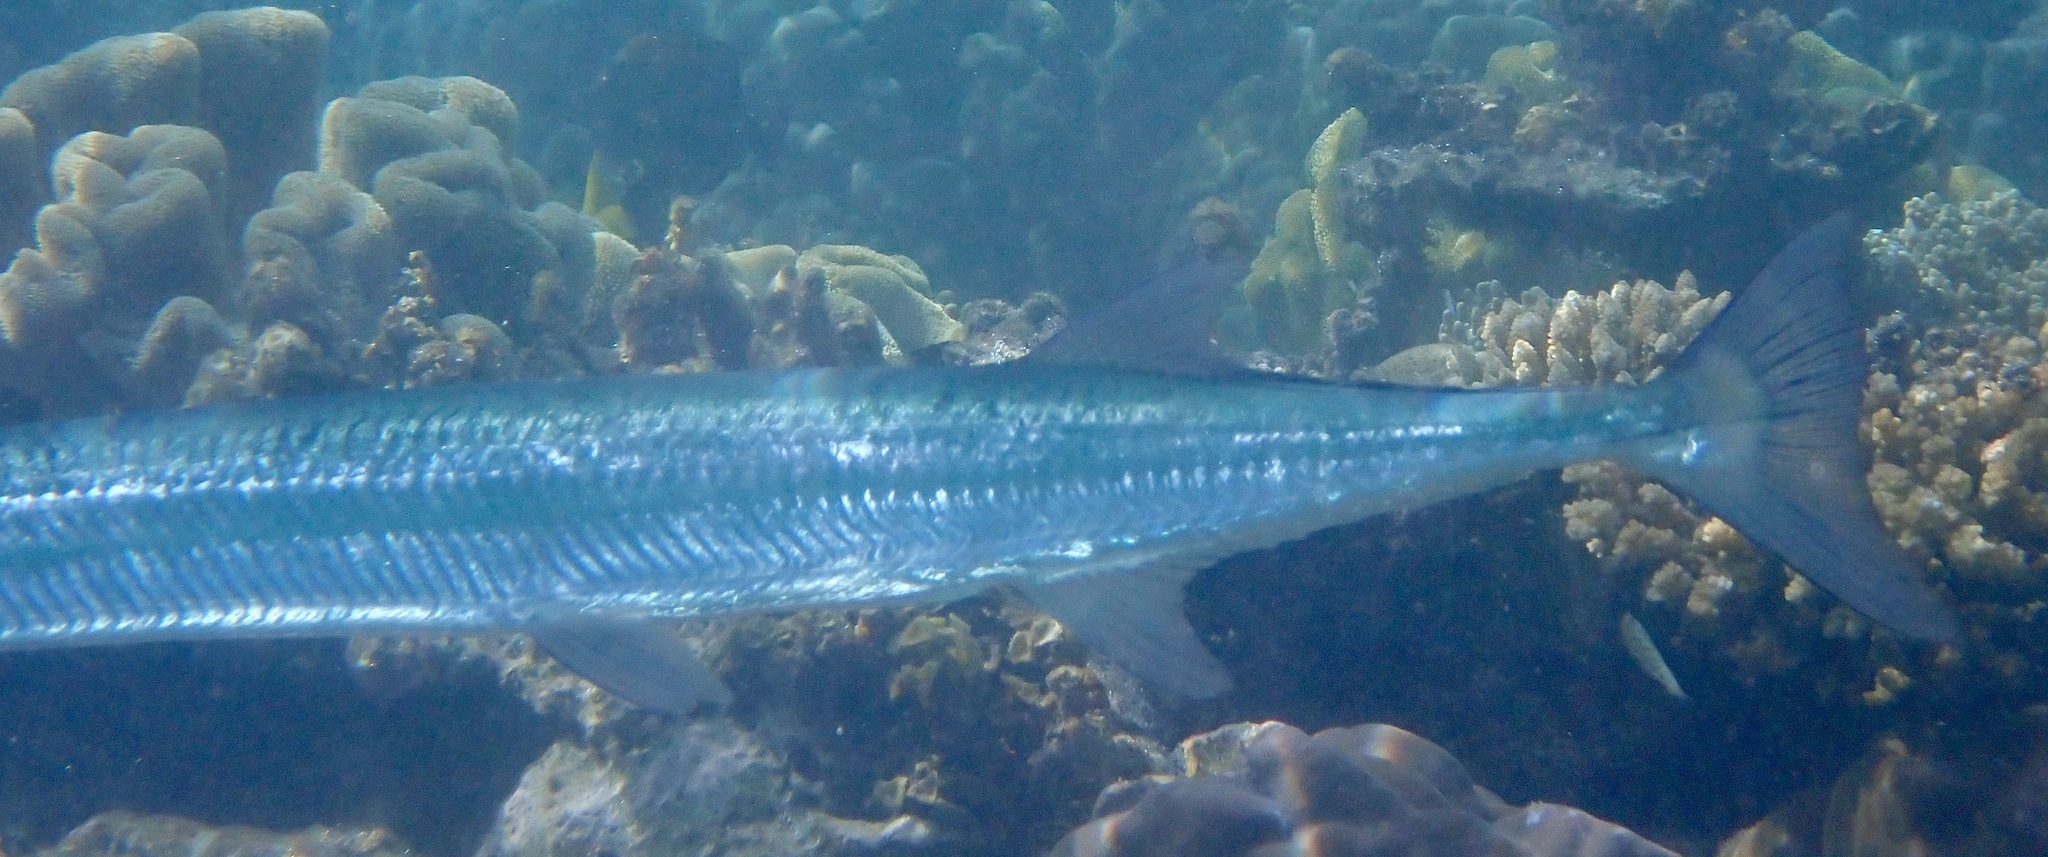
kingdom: Animalia
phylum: Chordata
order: Beloniformes
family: Belonidae
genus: Tylosurus
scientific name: Tylosurus crocodilus
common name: Houndfish
